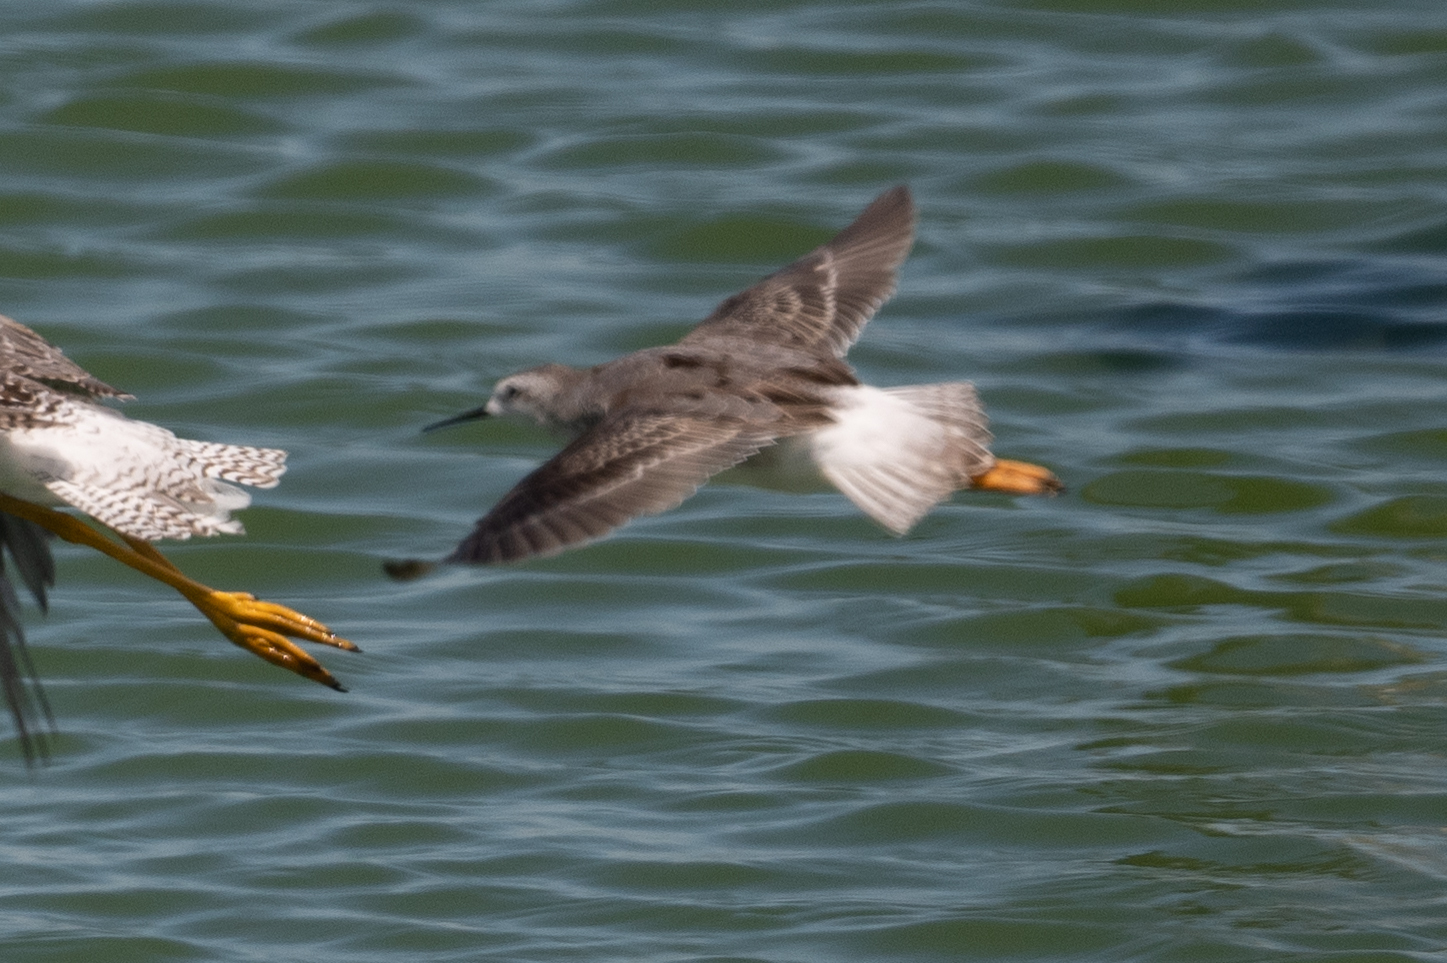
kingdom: Animalia
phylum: Chordata
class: Aves
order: Charadriiformes
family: Scolopacidae
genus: Phalaropus
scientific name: Phalaropus tricolor
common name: Wilson's phalarope
